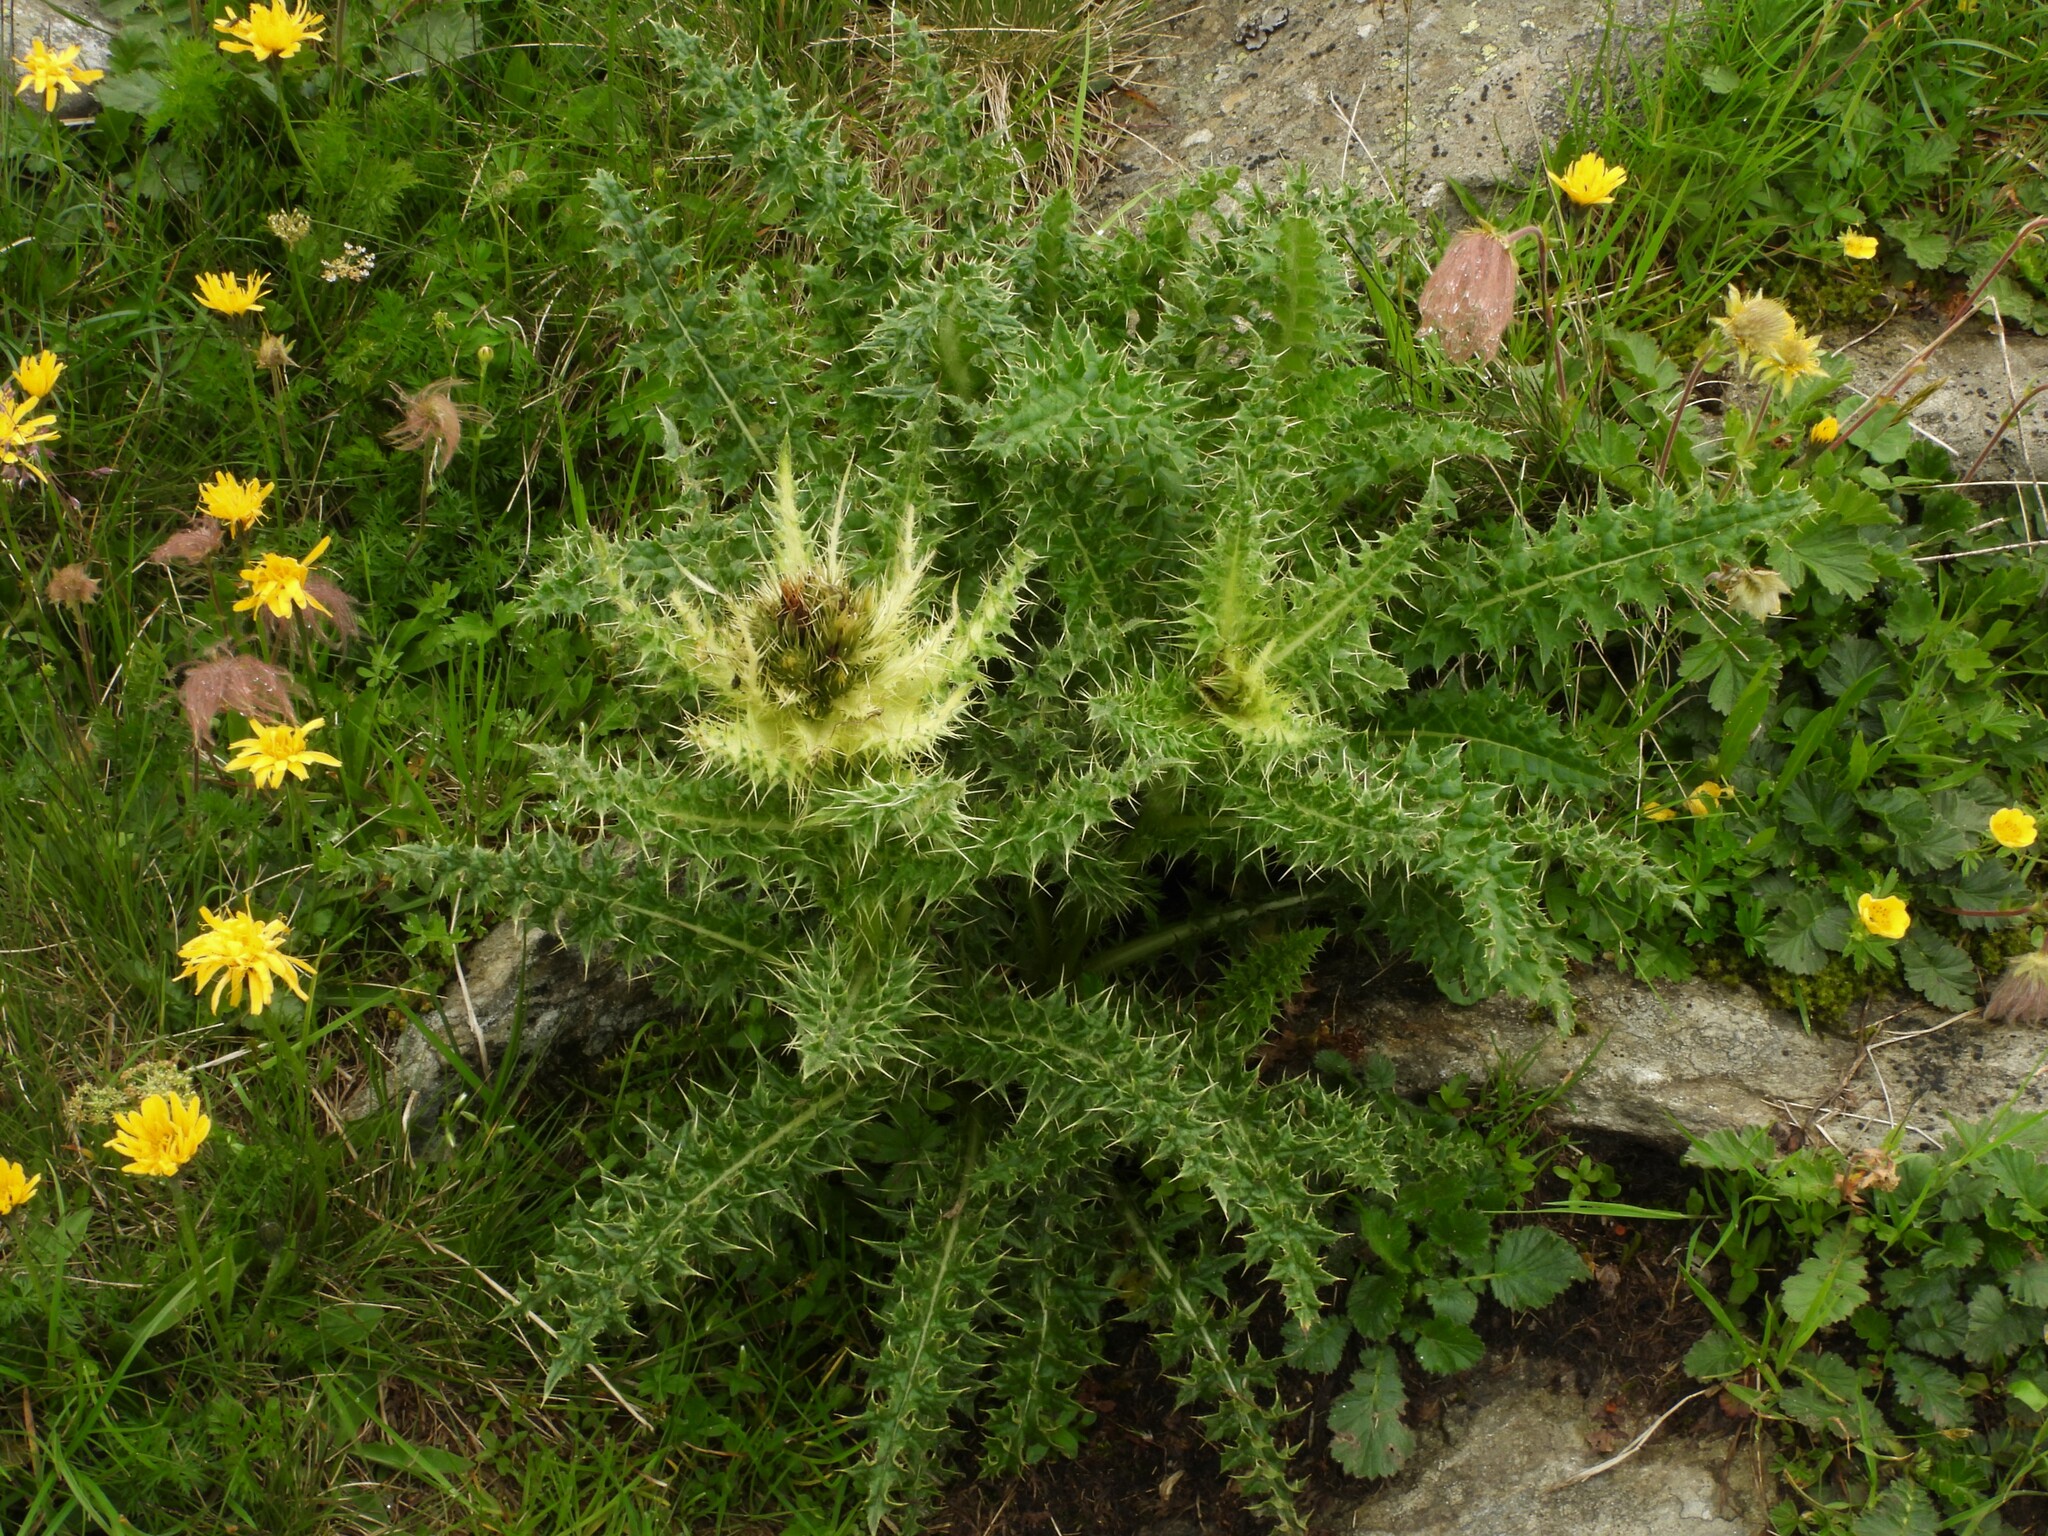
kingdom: Plantae
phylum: Tracheophyta
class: Magnoliopsida
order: Asterales
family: Asteraceae
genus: Cirsium
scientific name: Cirsium spinosissimum
